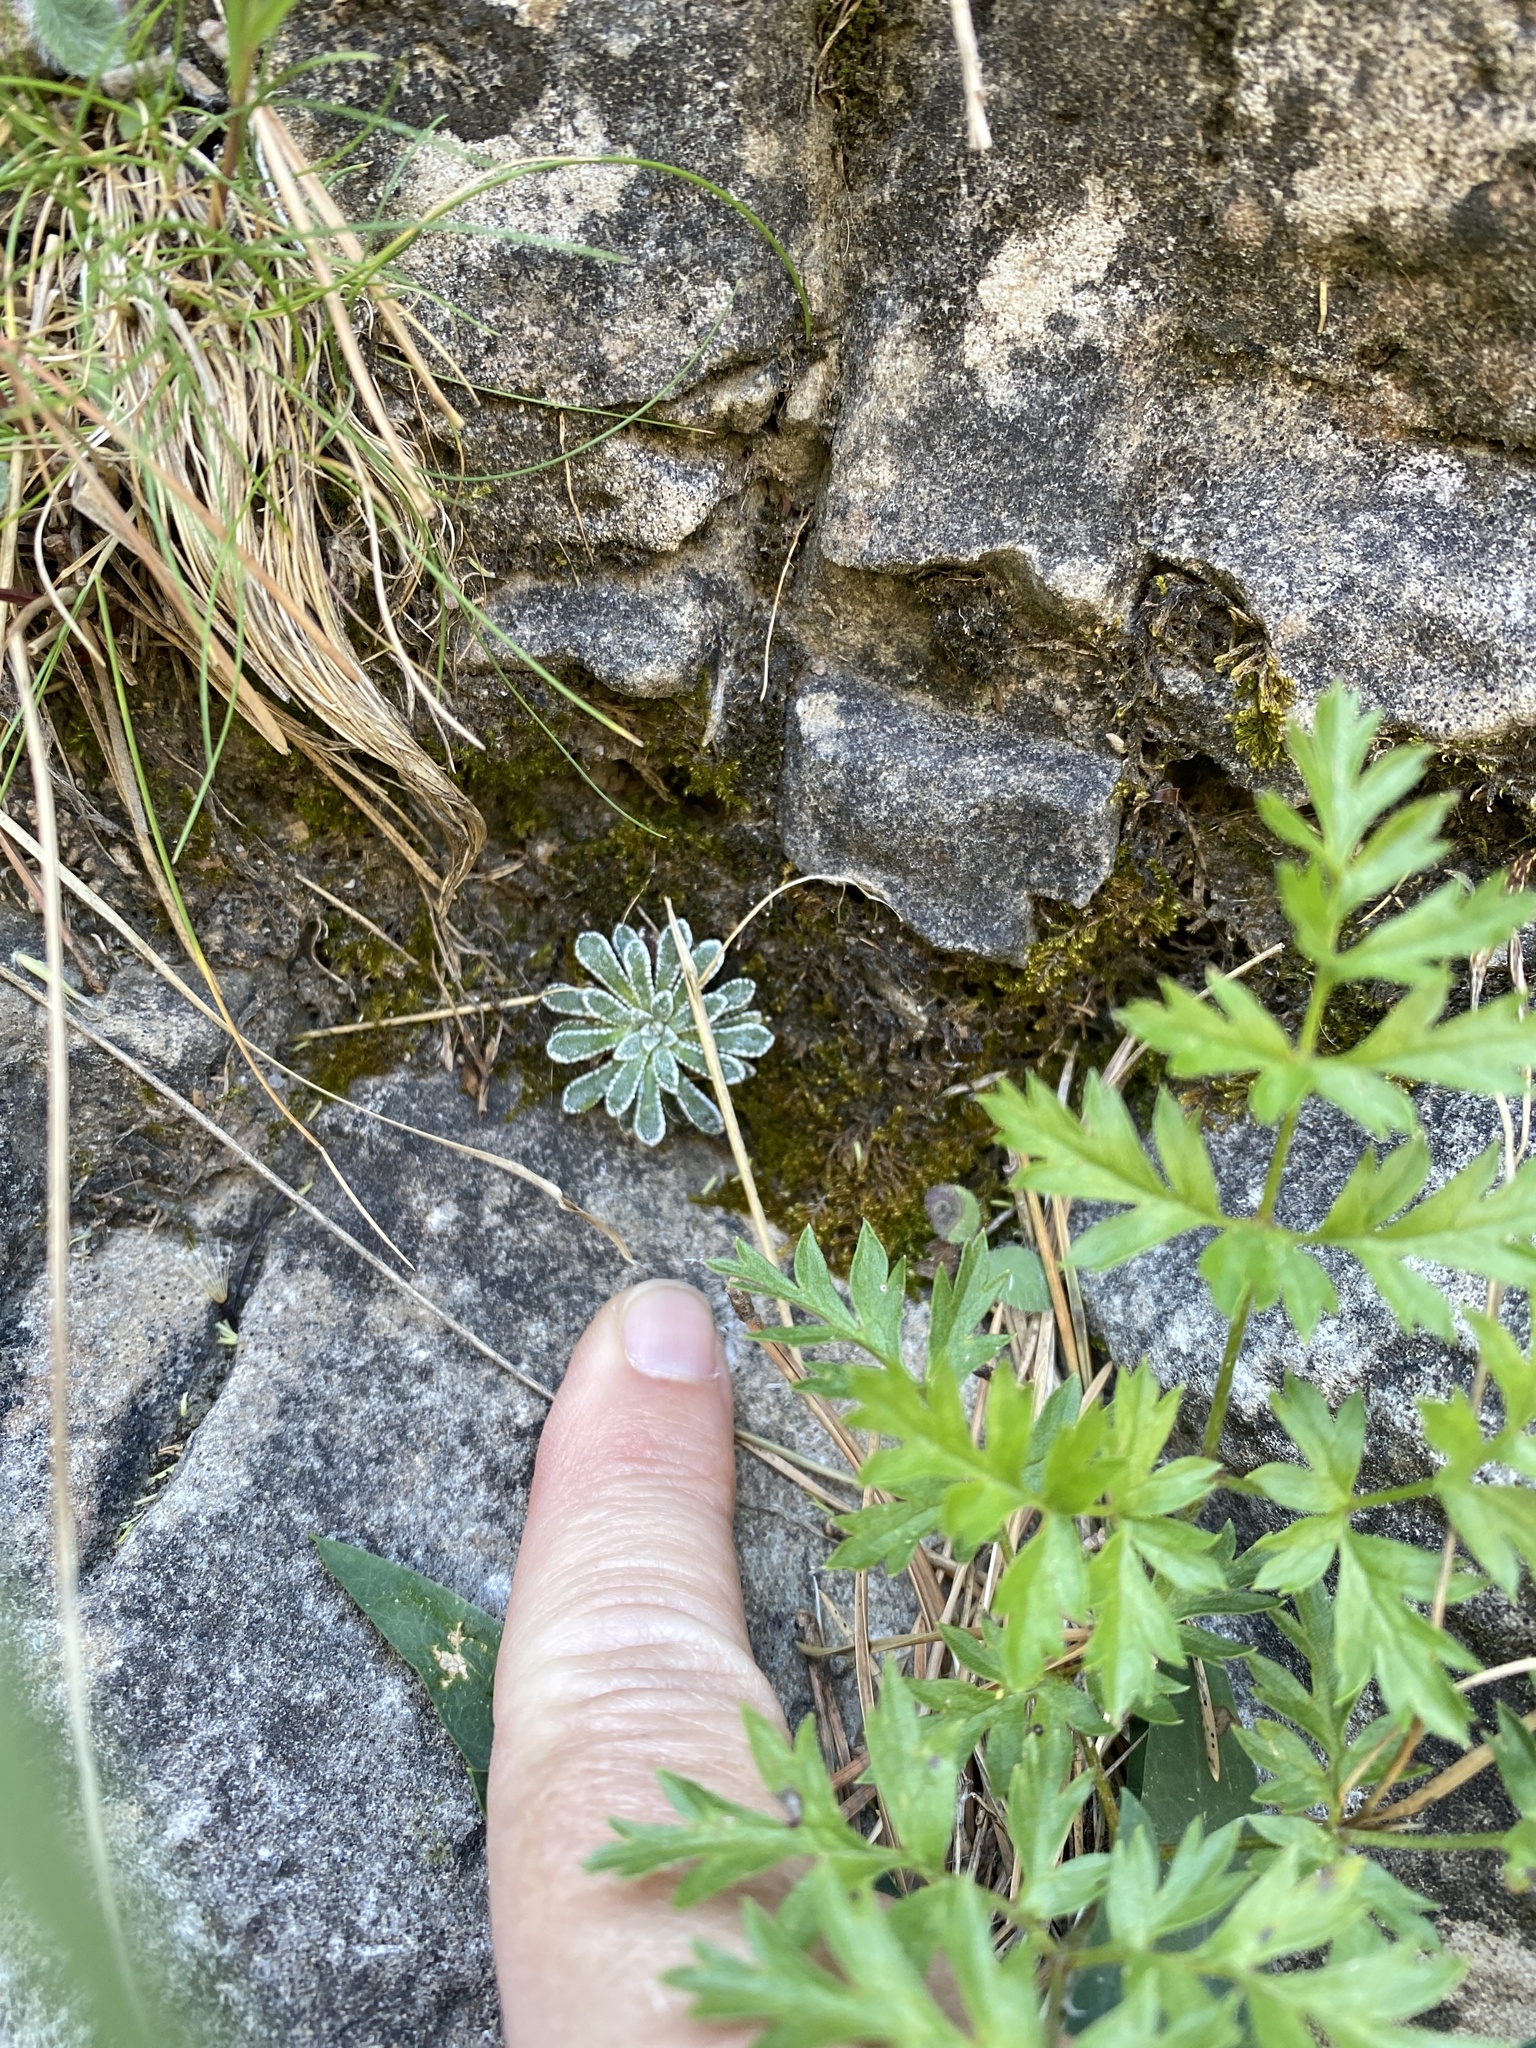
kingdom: Plantae
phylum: Tracheophyta
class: Magnoliopsida
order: Saxifragales
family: Saxifragaceae
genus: Saxifraga
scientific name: Saxifraga longifolia
